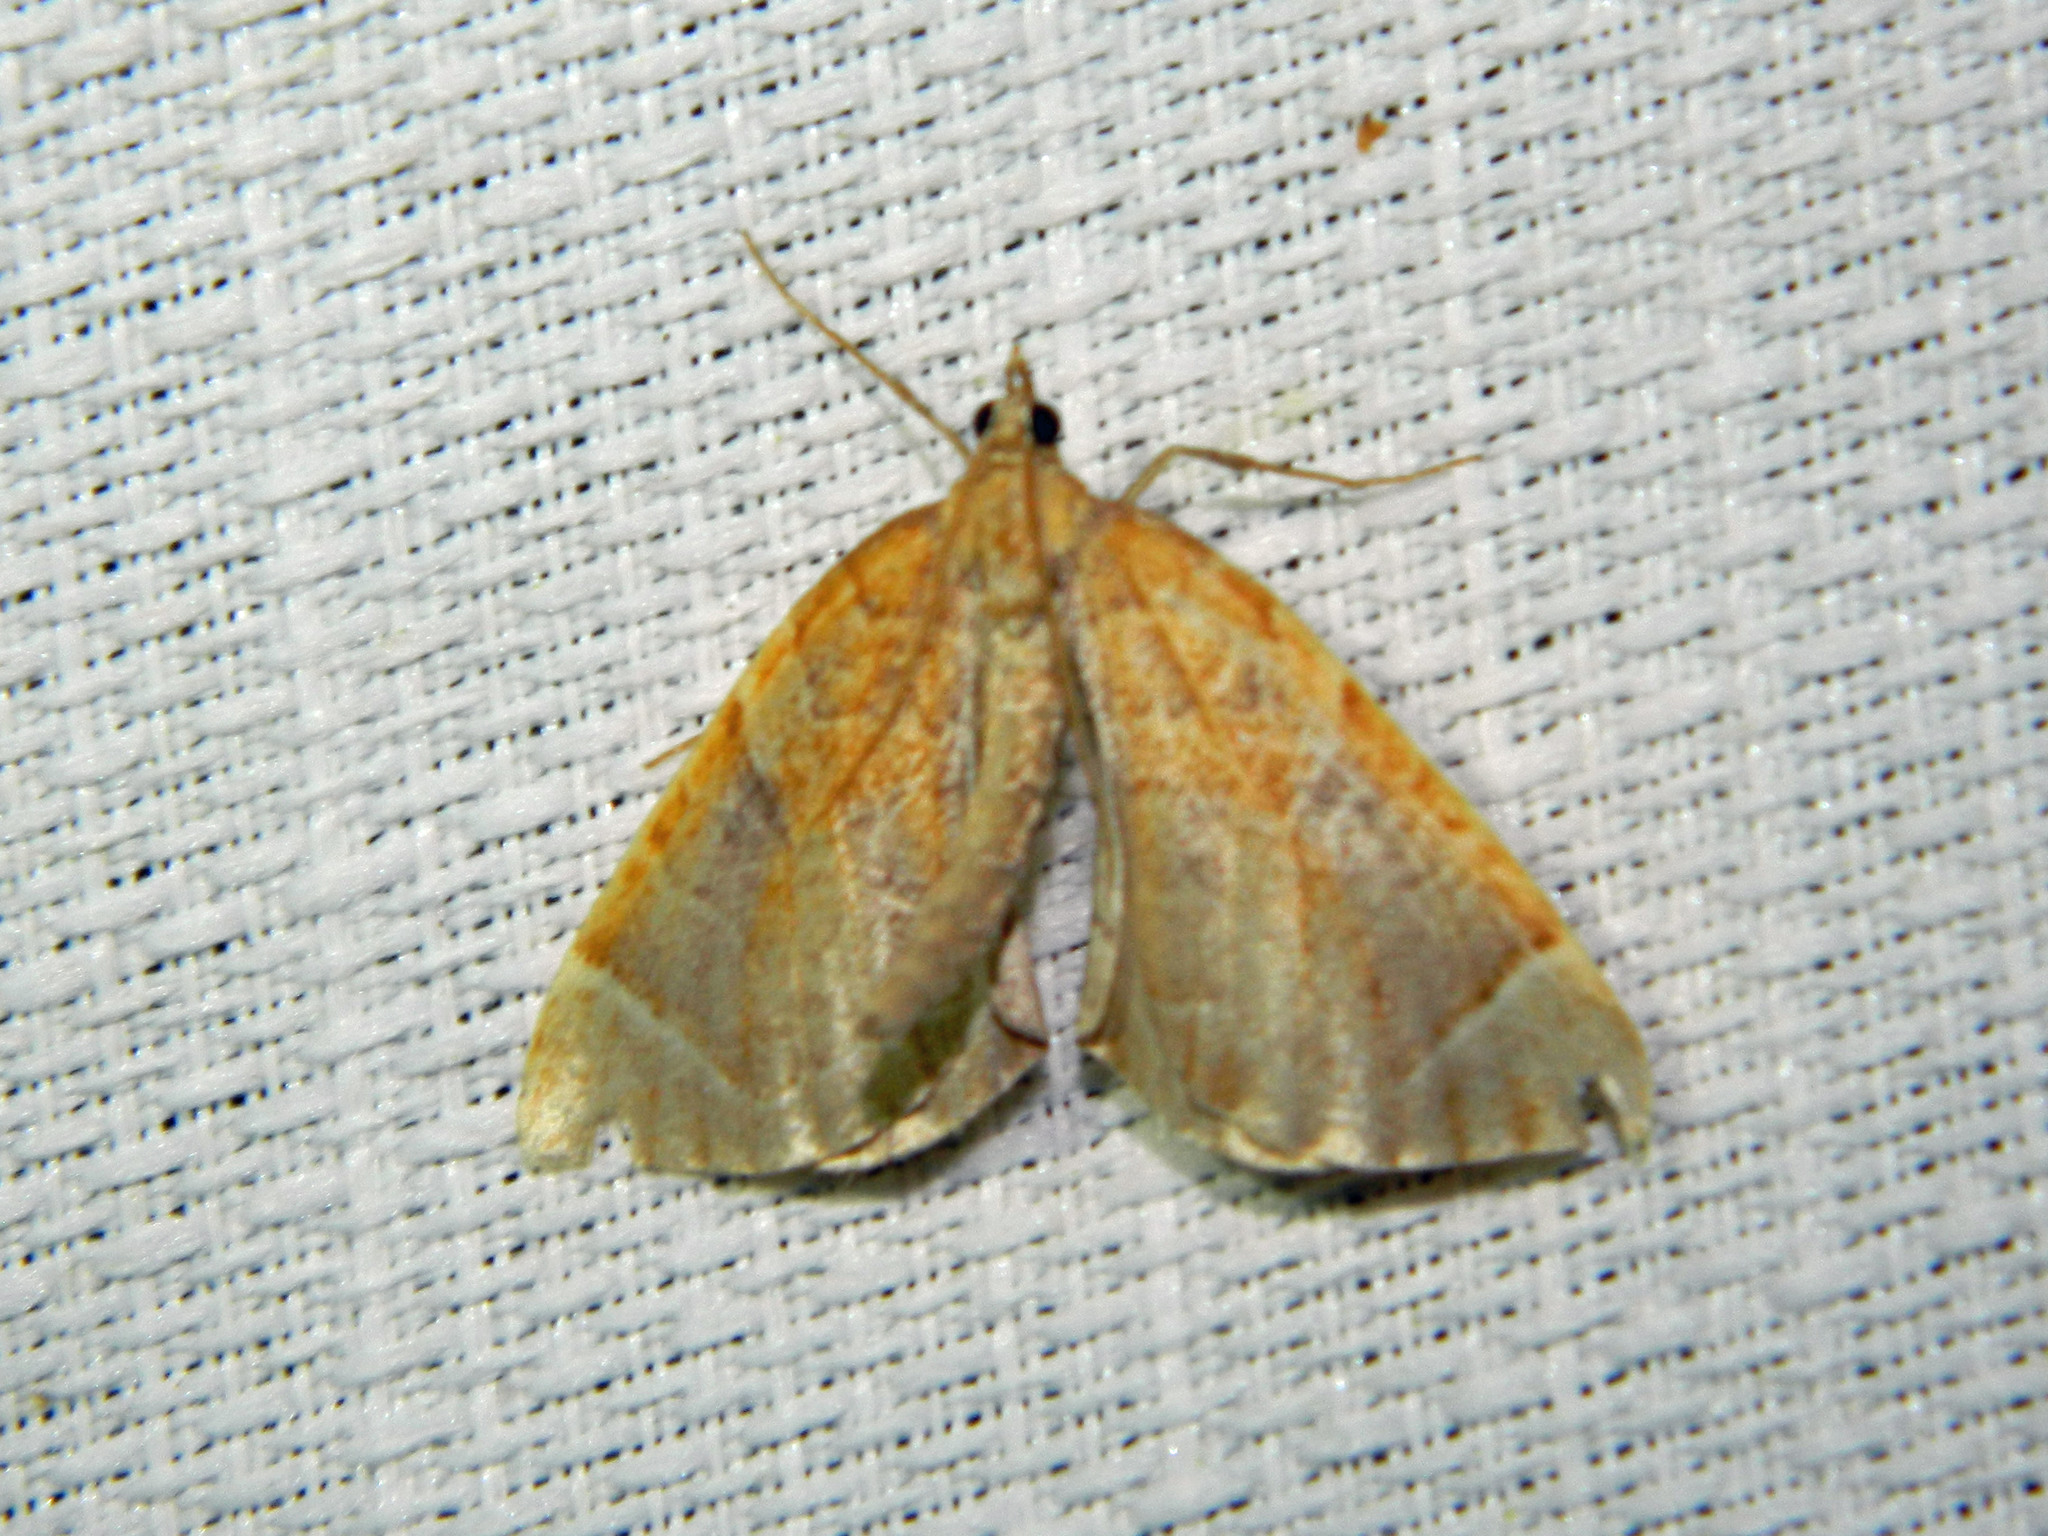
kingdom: Animalia
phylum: Arthropoda
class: Insecta
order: Lepidoptera
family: Geometridae
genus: Eulithis
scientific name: Eulithis testata
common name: Chevron
